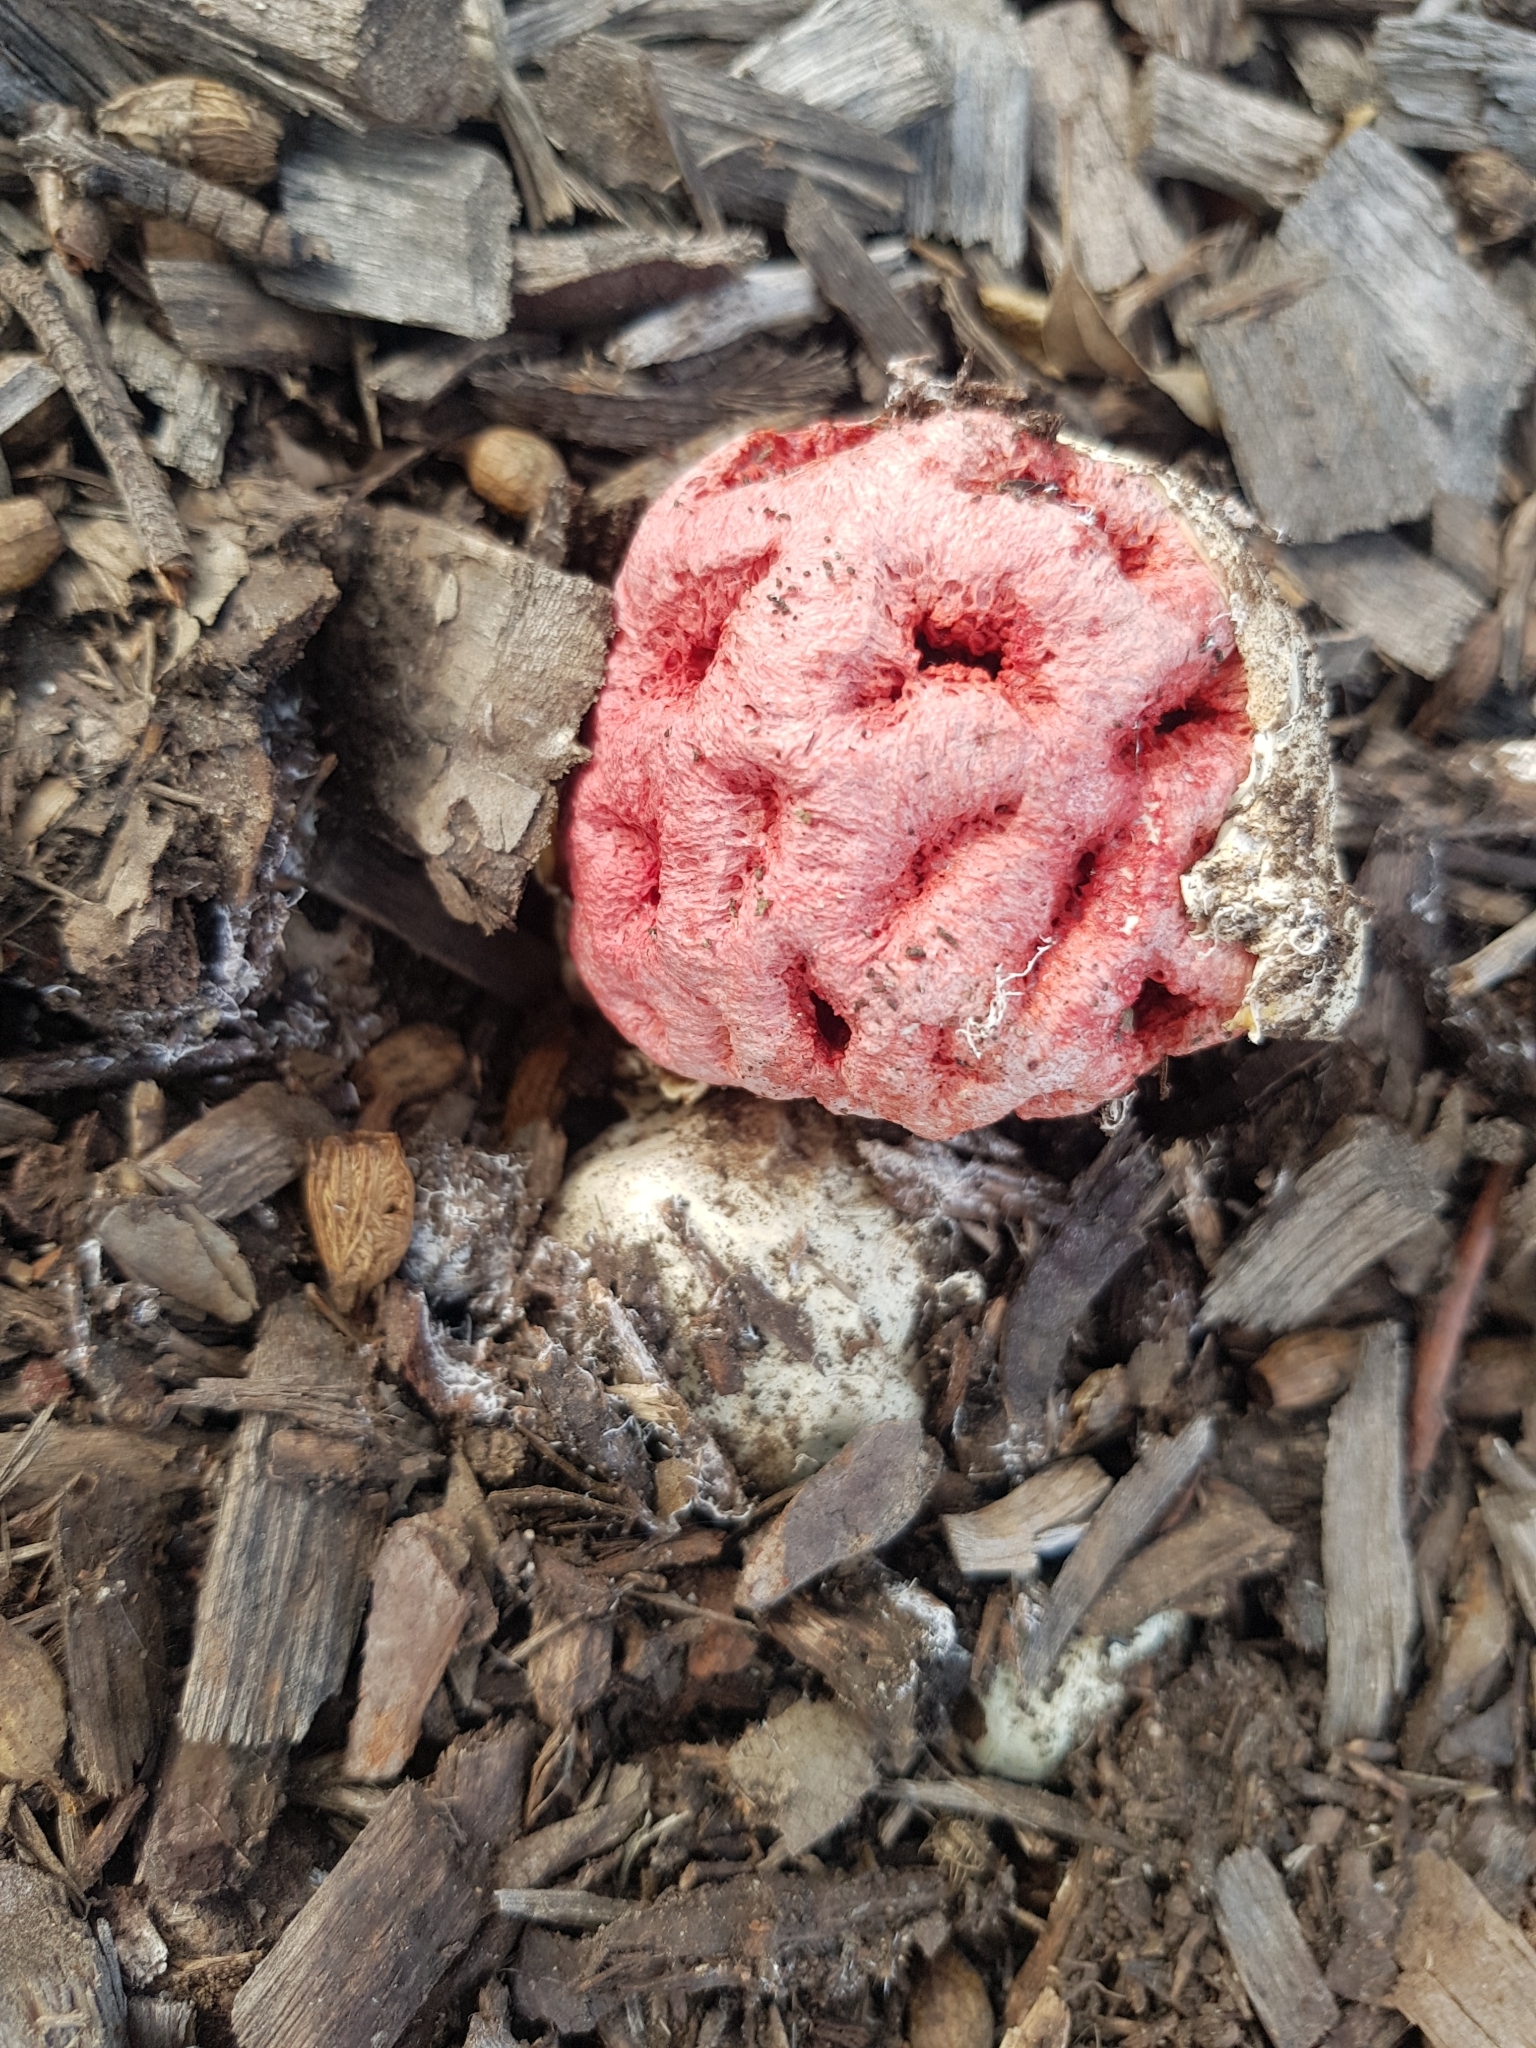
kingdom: Fungi
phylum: Basidiomycota
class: Agaricomycetes
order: Phallales
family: Phallaceae
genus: Clathrus
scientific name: Clathrus ruber
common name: Red cage
